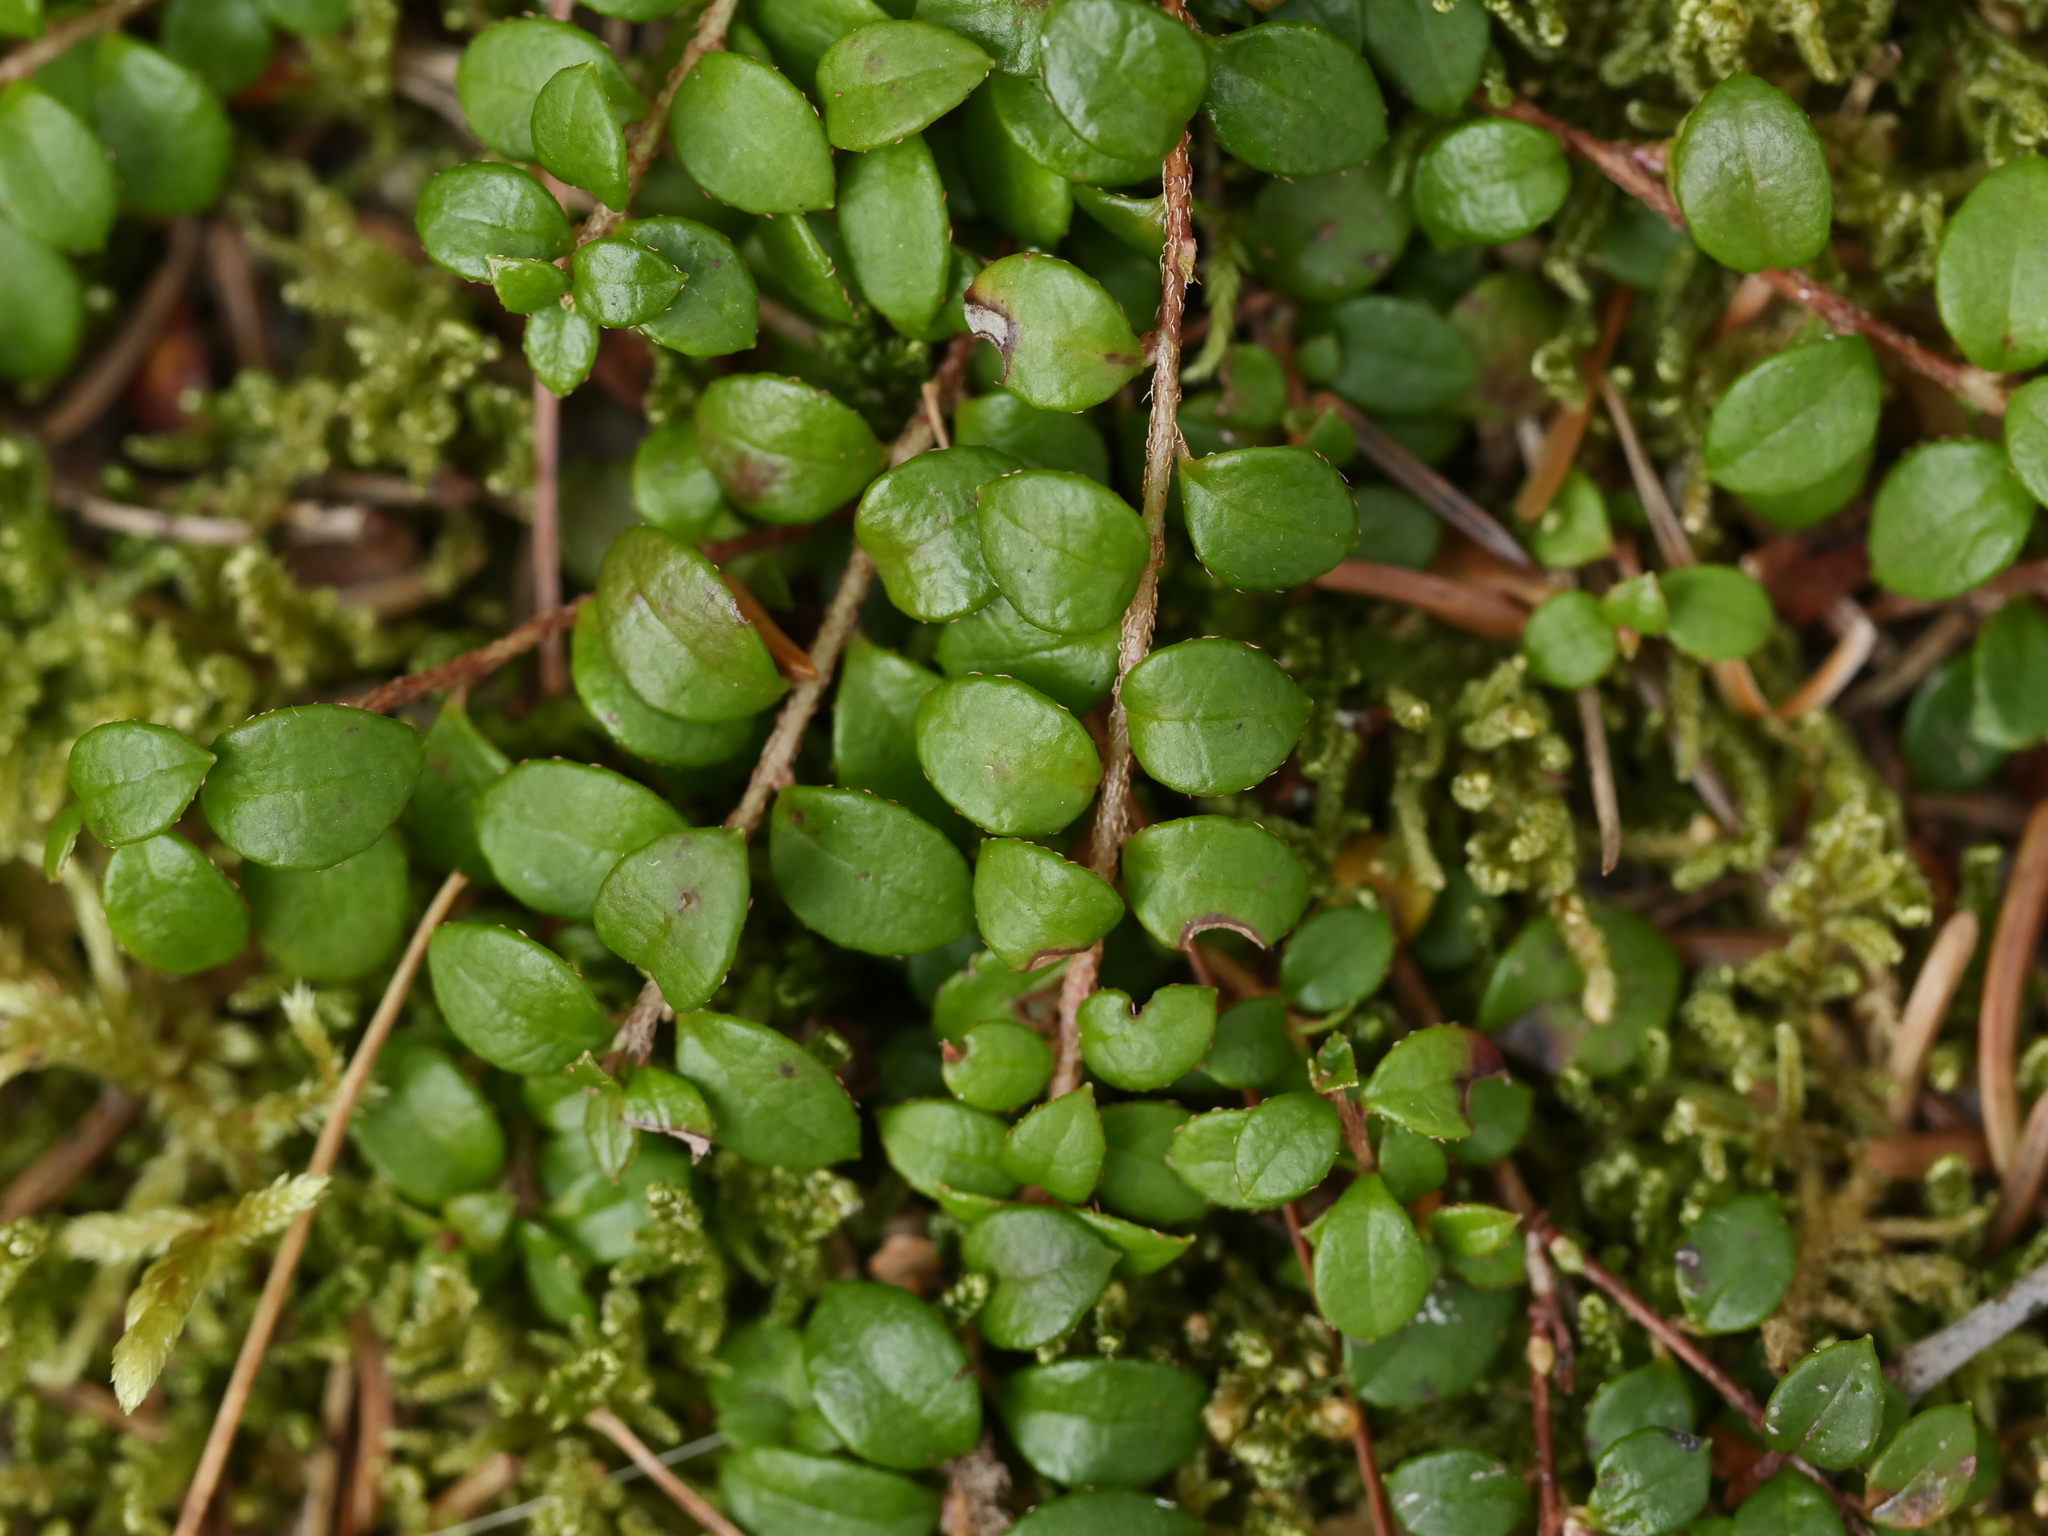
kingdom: Plantae
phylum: Tracheophyta
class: Magnoliopsida
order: Ericales
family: Ericaceae
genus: Gaultheria
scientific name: Gaultheria hispidula
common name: Cancer wintergreen
